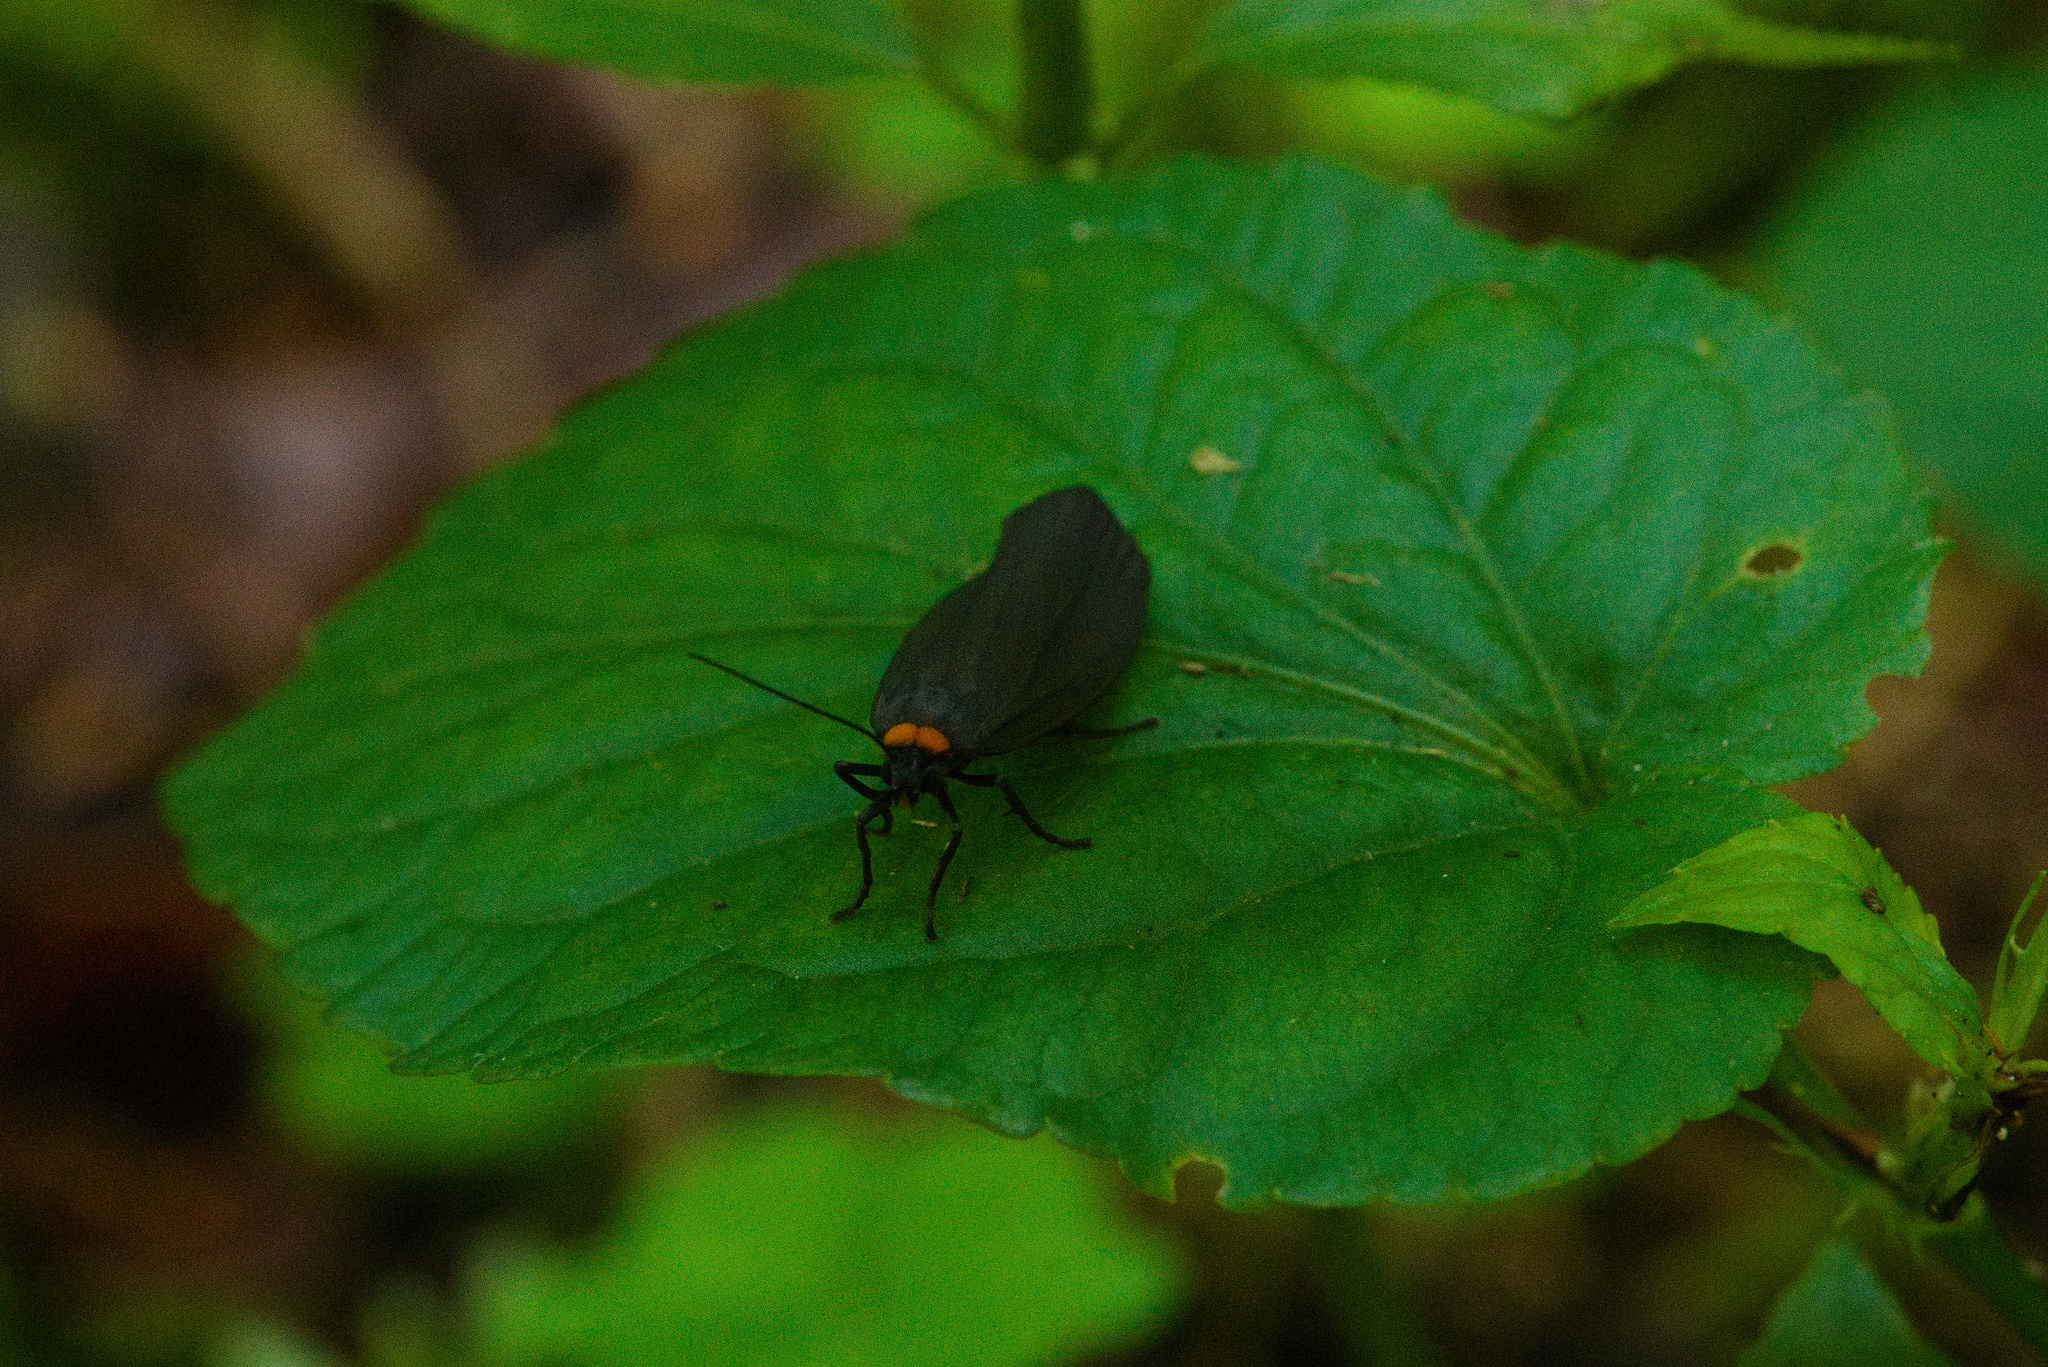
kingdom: Animalia
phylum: Arthropoda
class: Insecta
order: Lepidoptera
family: Erebidae
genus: Atolmis
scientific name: Atolmis rubricollis
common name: Red-necked footman
